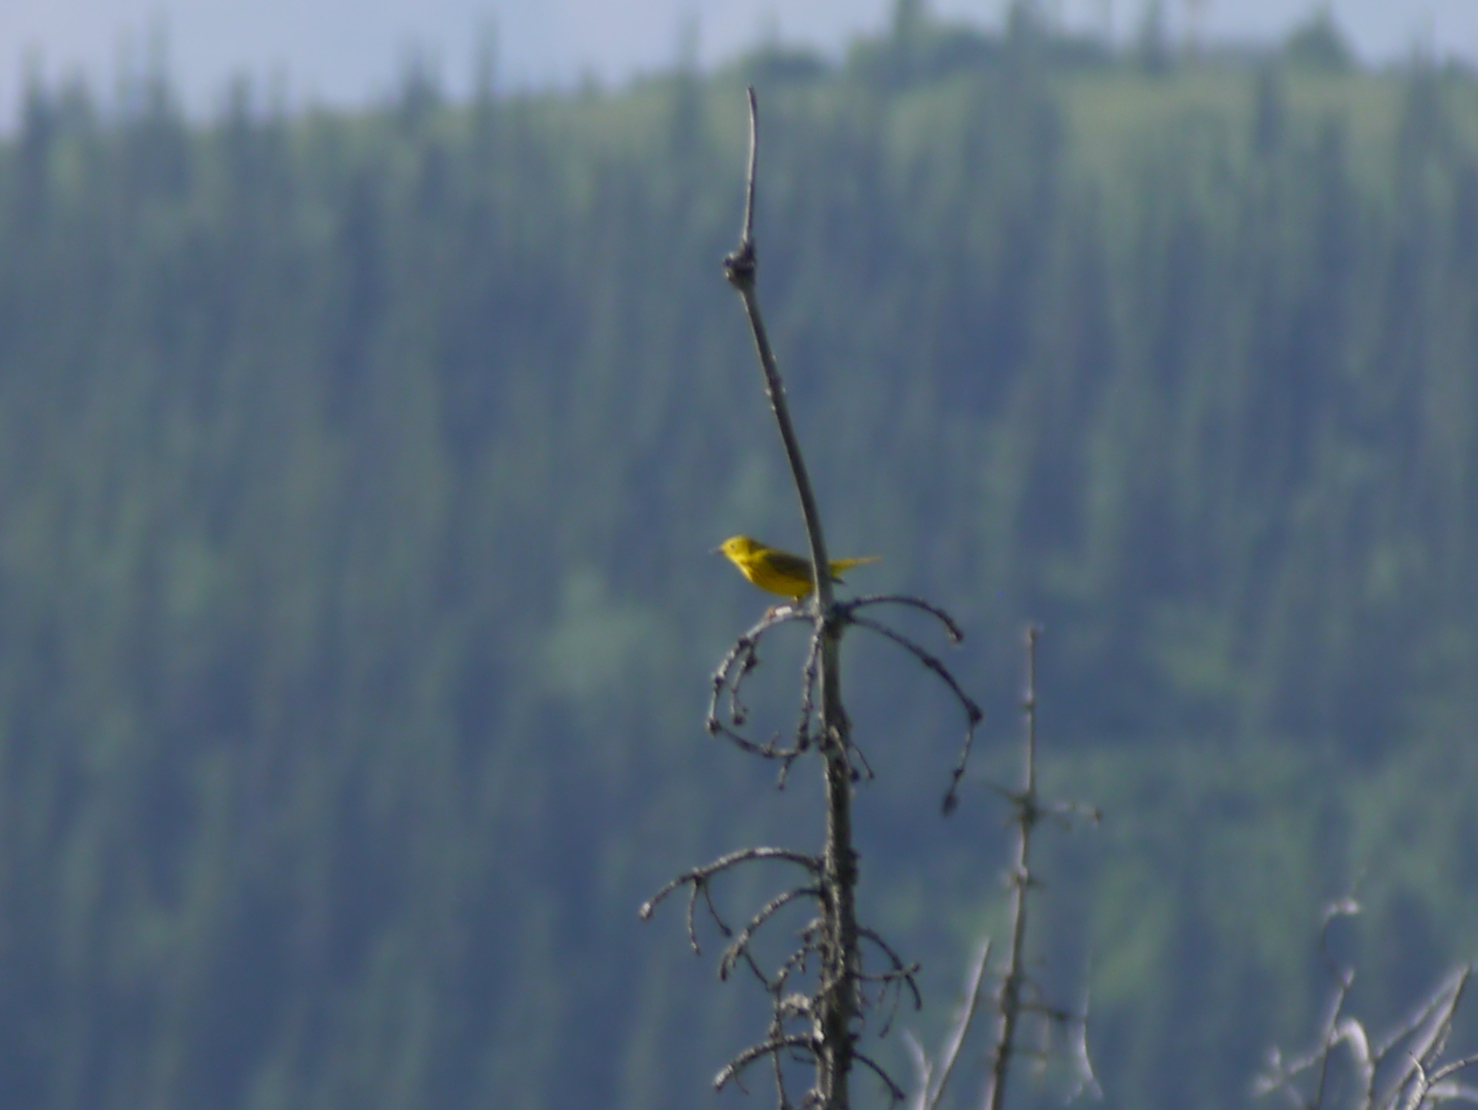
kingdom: Animalia
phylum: Chordata
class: Aves
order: Passeriformes
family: Parulidae
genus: Setophaga
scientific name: Setophaga petechia
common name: Yellow warbler
